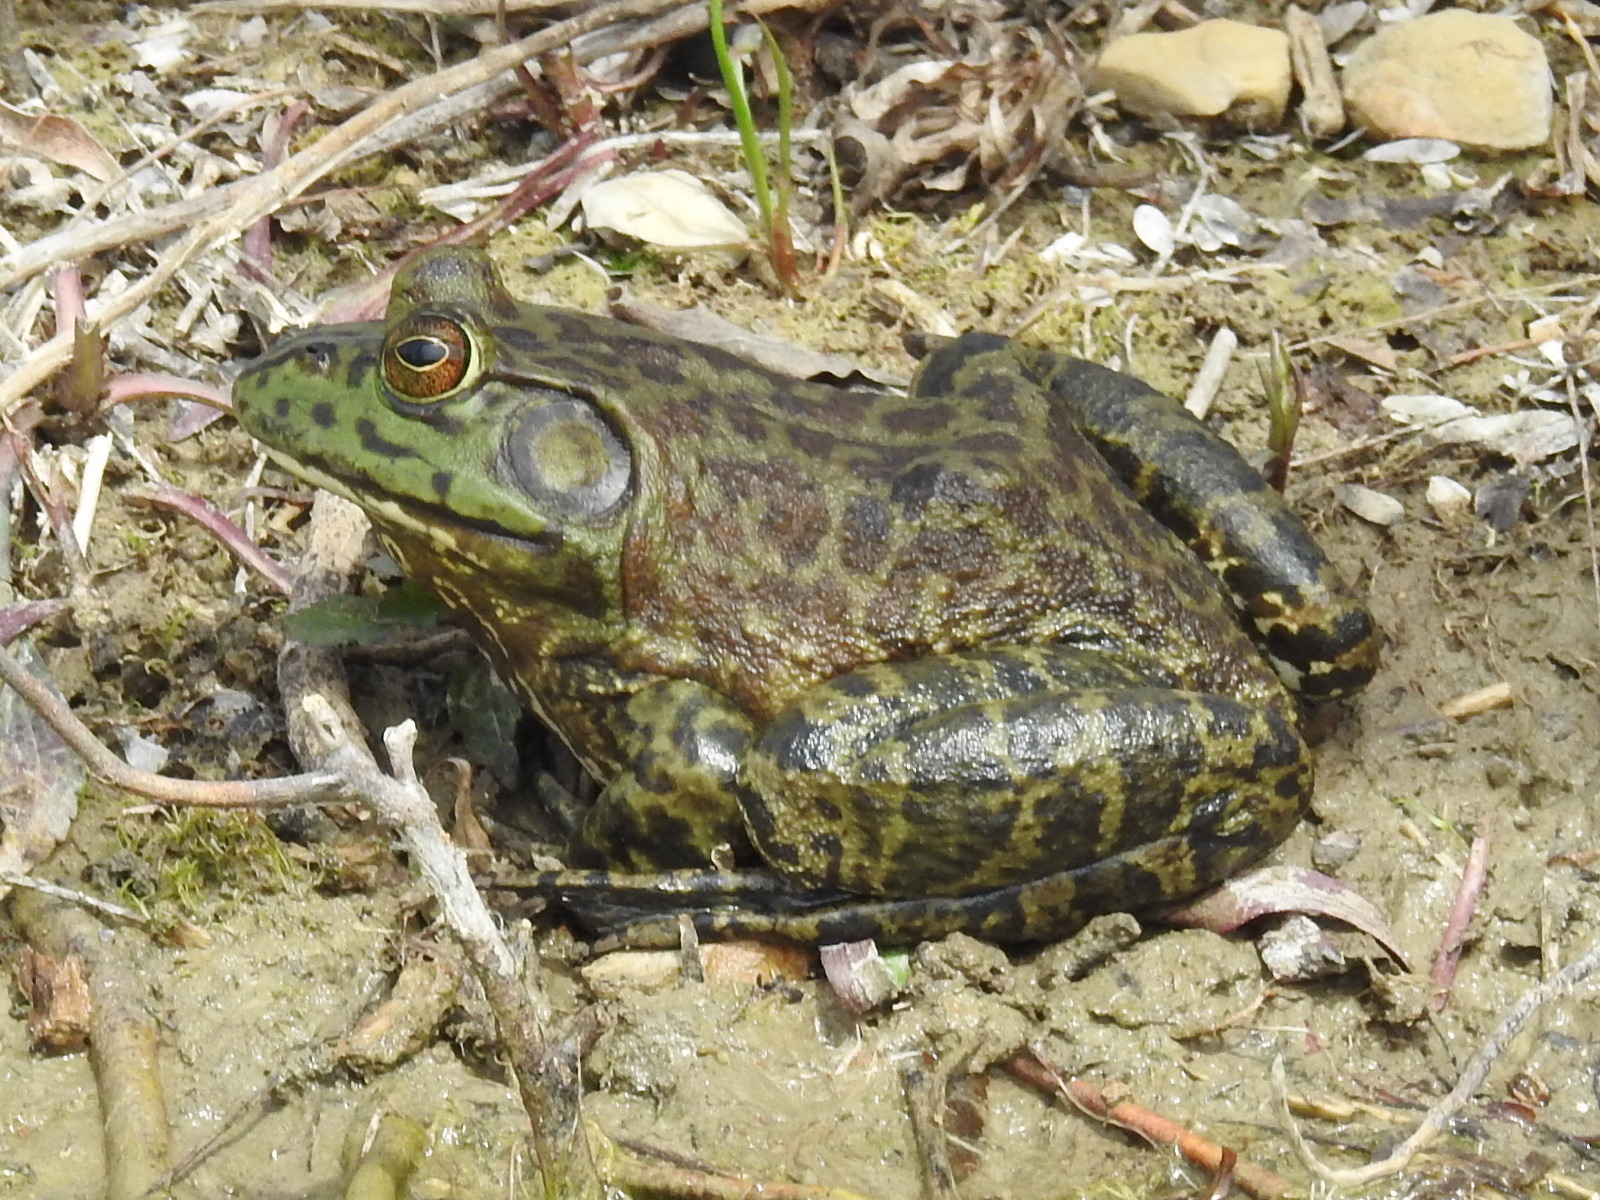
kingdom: Animalia
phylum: Chordata
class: Amphibia
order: Anura
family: Ranidae
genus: Lithobates
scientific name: Lithobates catesbeianus
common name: American bullfrog
